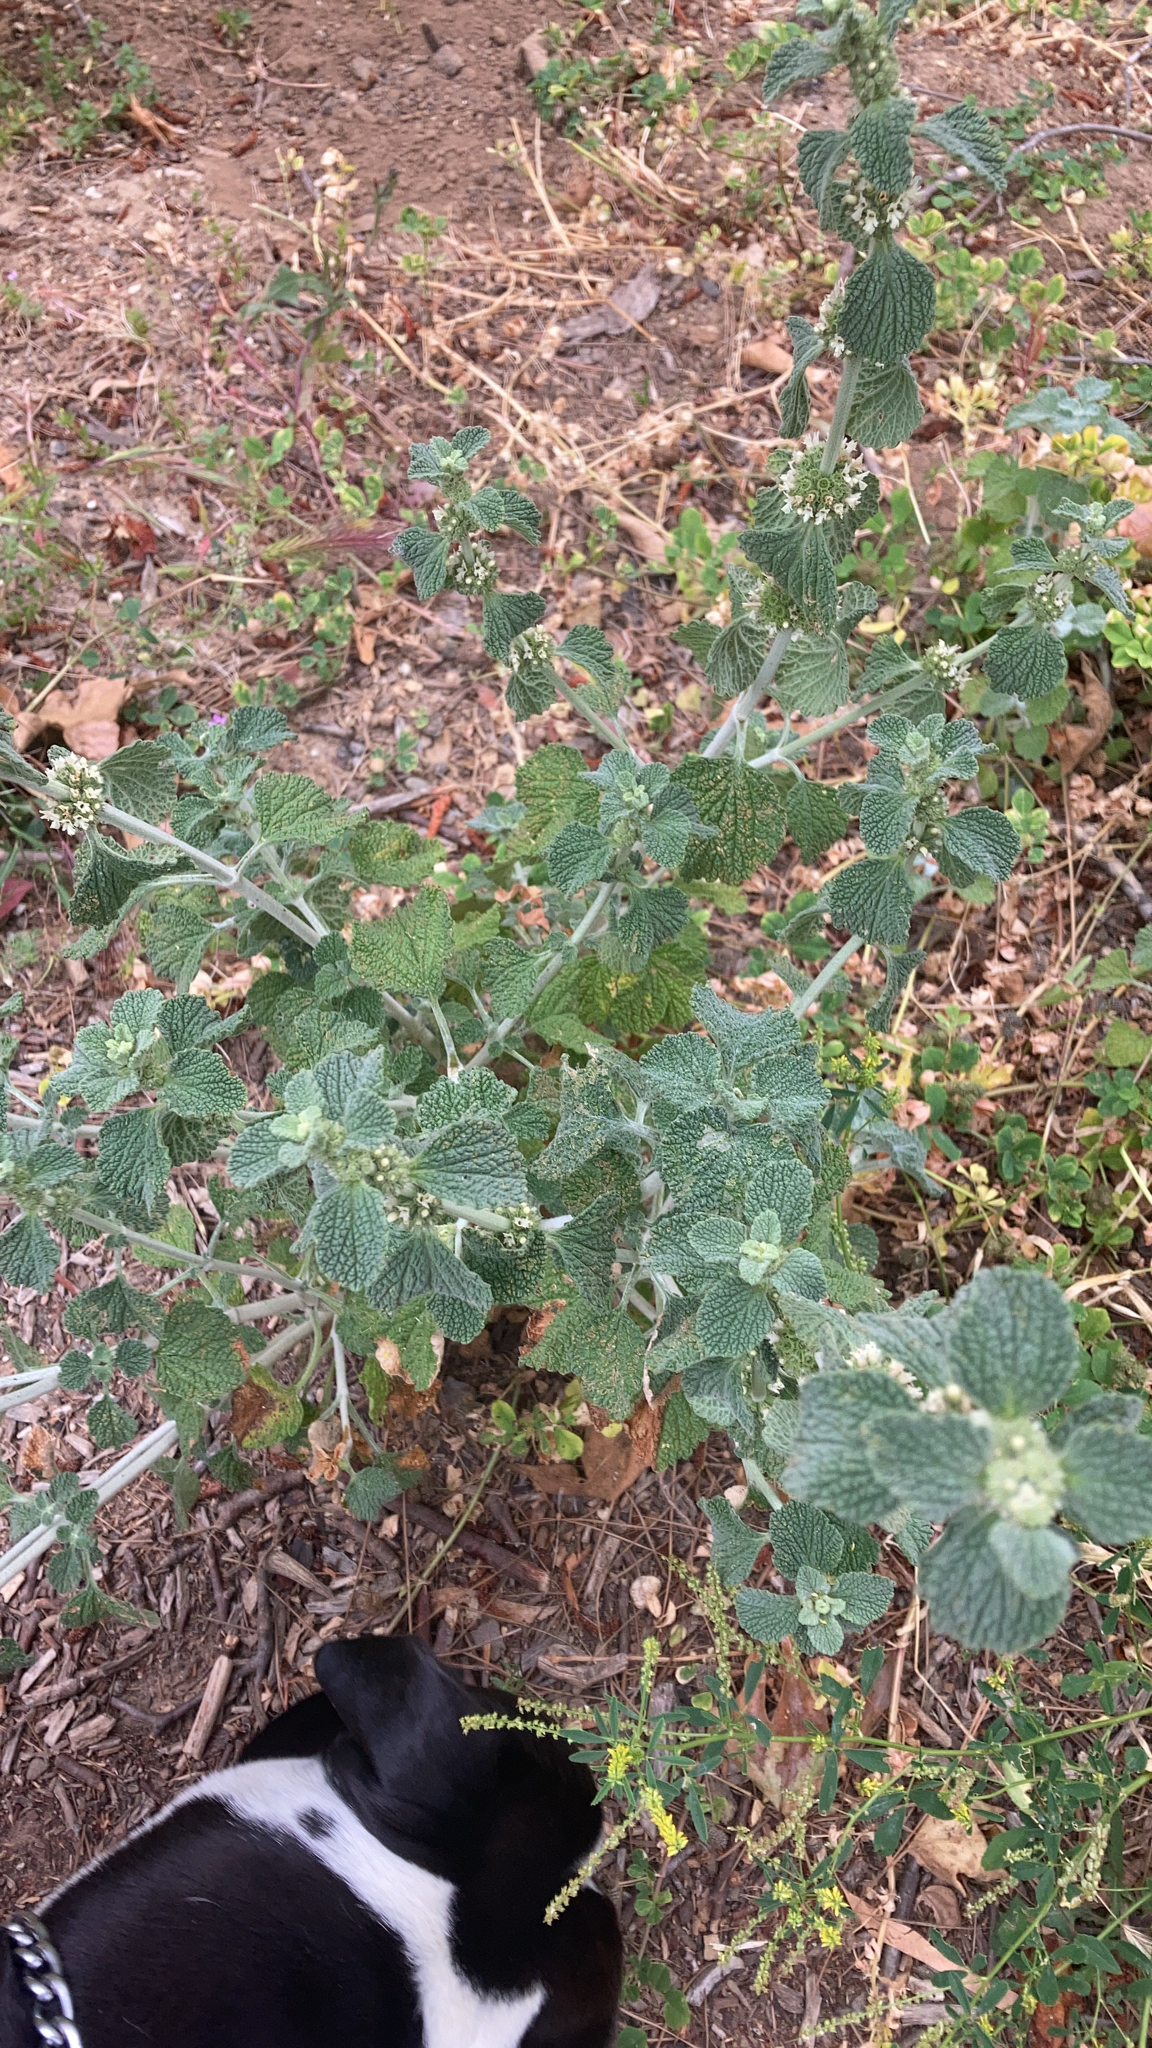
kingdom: Plantae
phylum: Tracheophyta
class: Magnoliopsida
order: Lamiales
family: Lamiaceae
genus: Marrubium
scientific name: Marrubium vulgare
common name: Horehound
